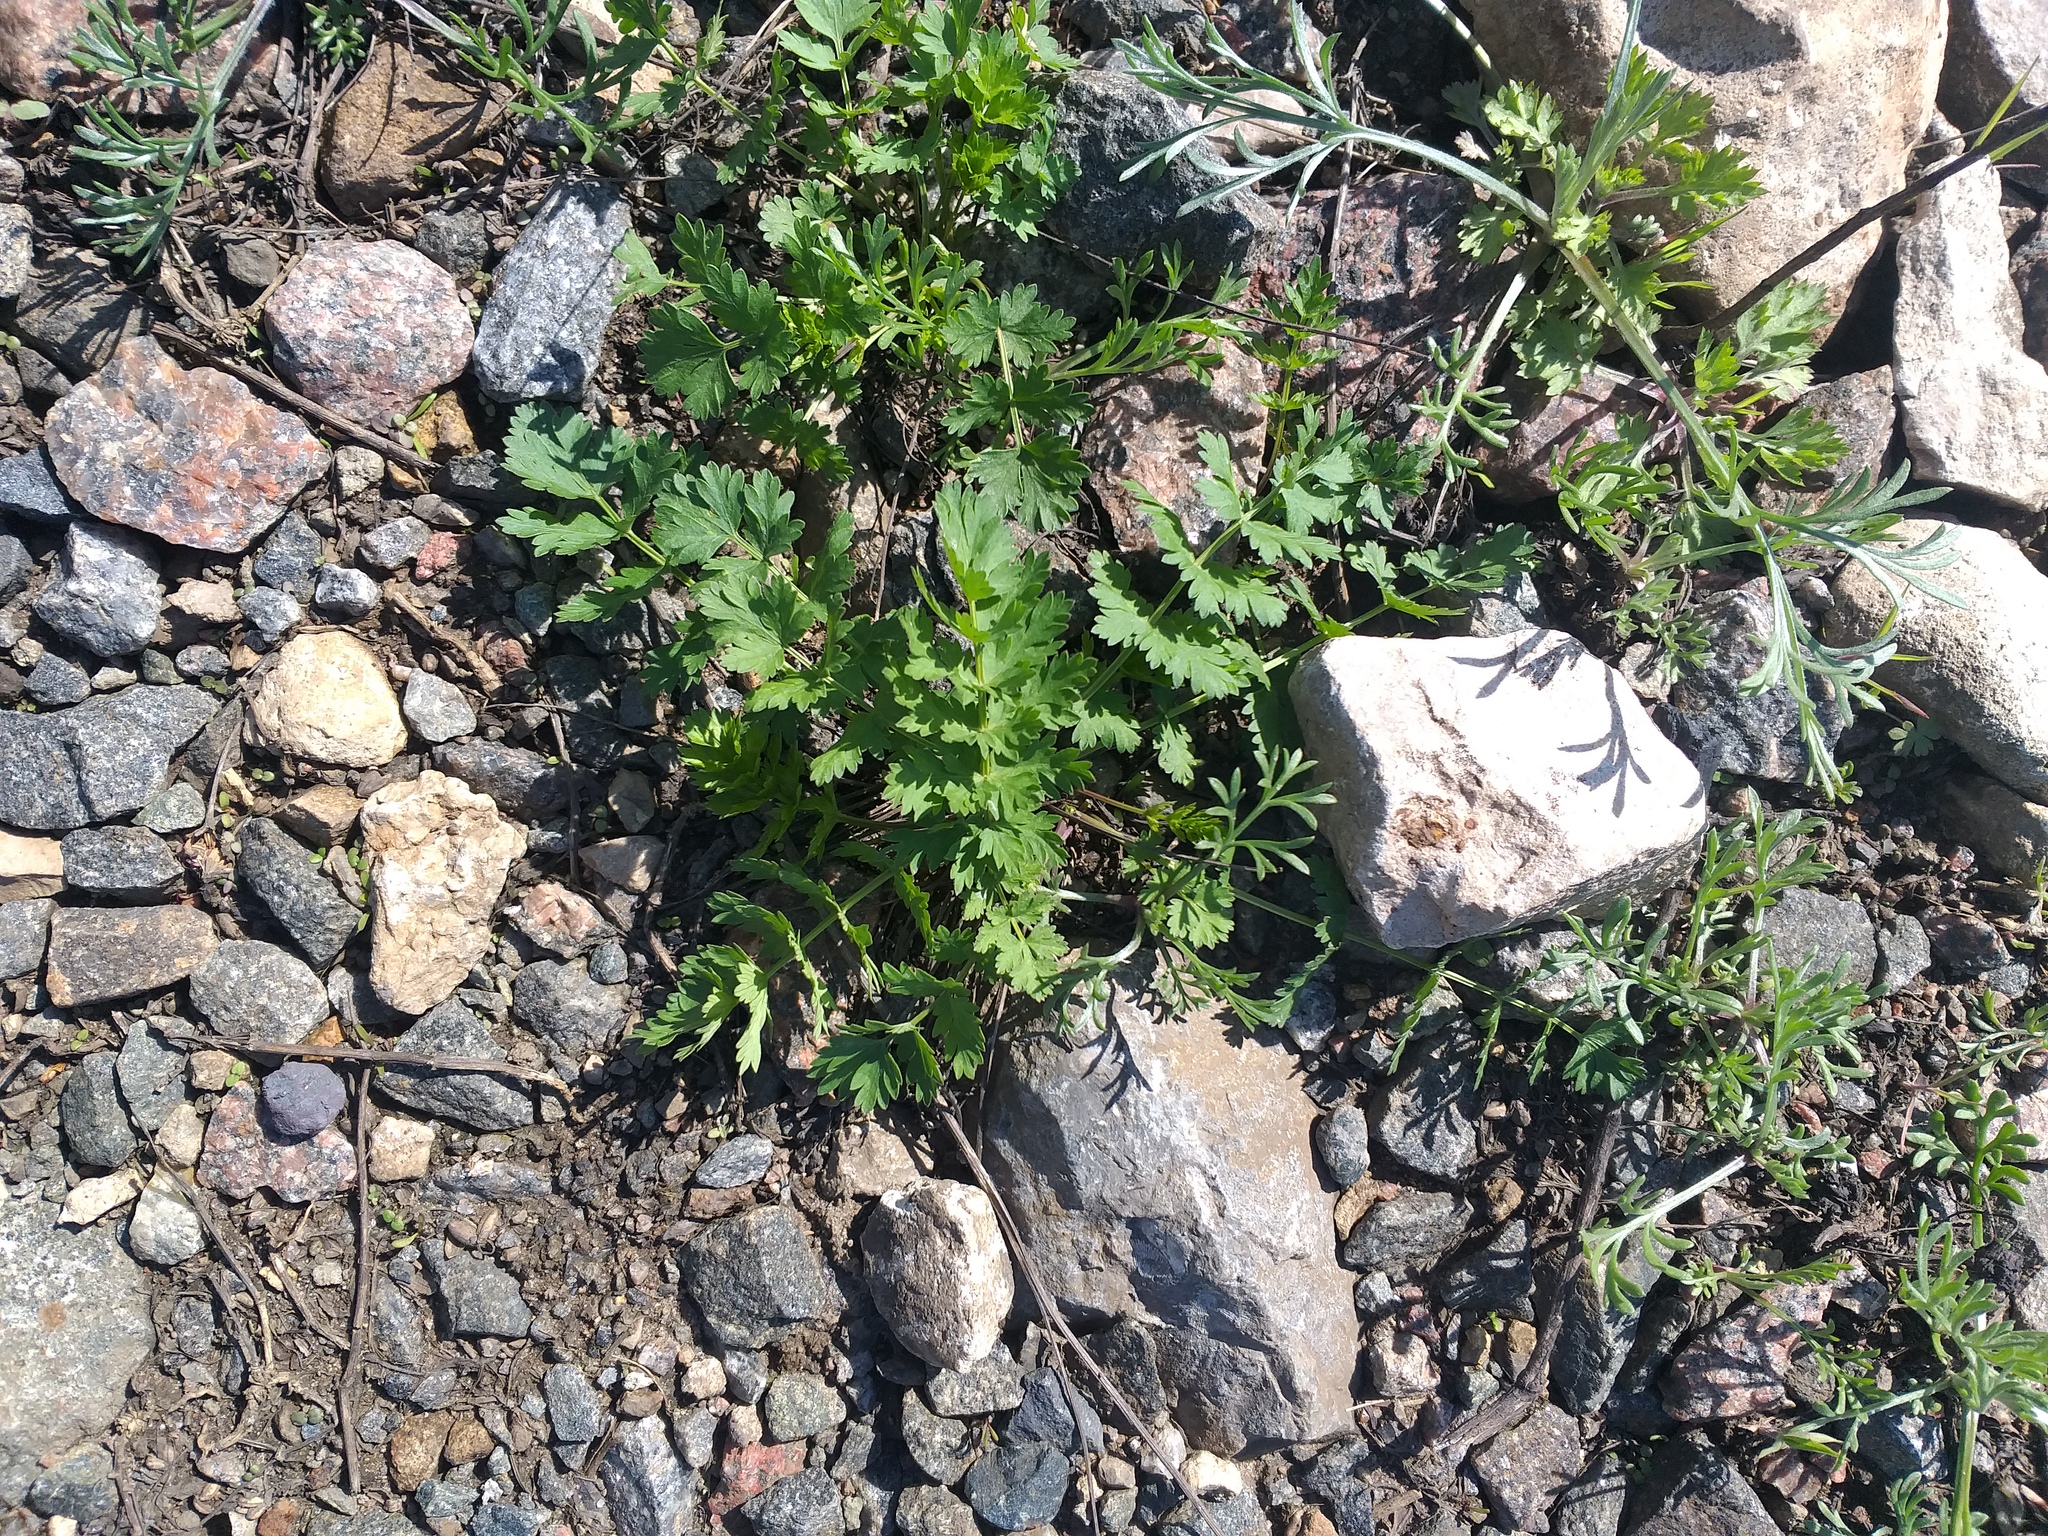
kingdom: Plantae
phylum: Tracheophyta
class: Magnoliopsida
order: Apiales
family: Apiaceae
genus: Seseli
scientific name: Seseli libanotis
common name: Mooncarrot
